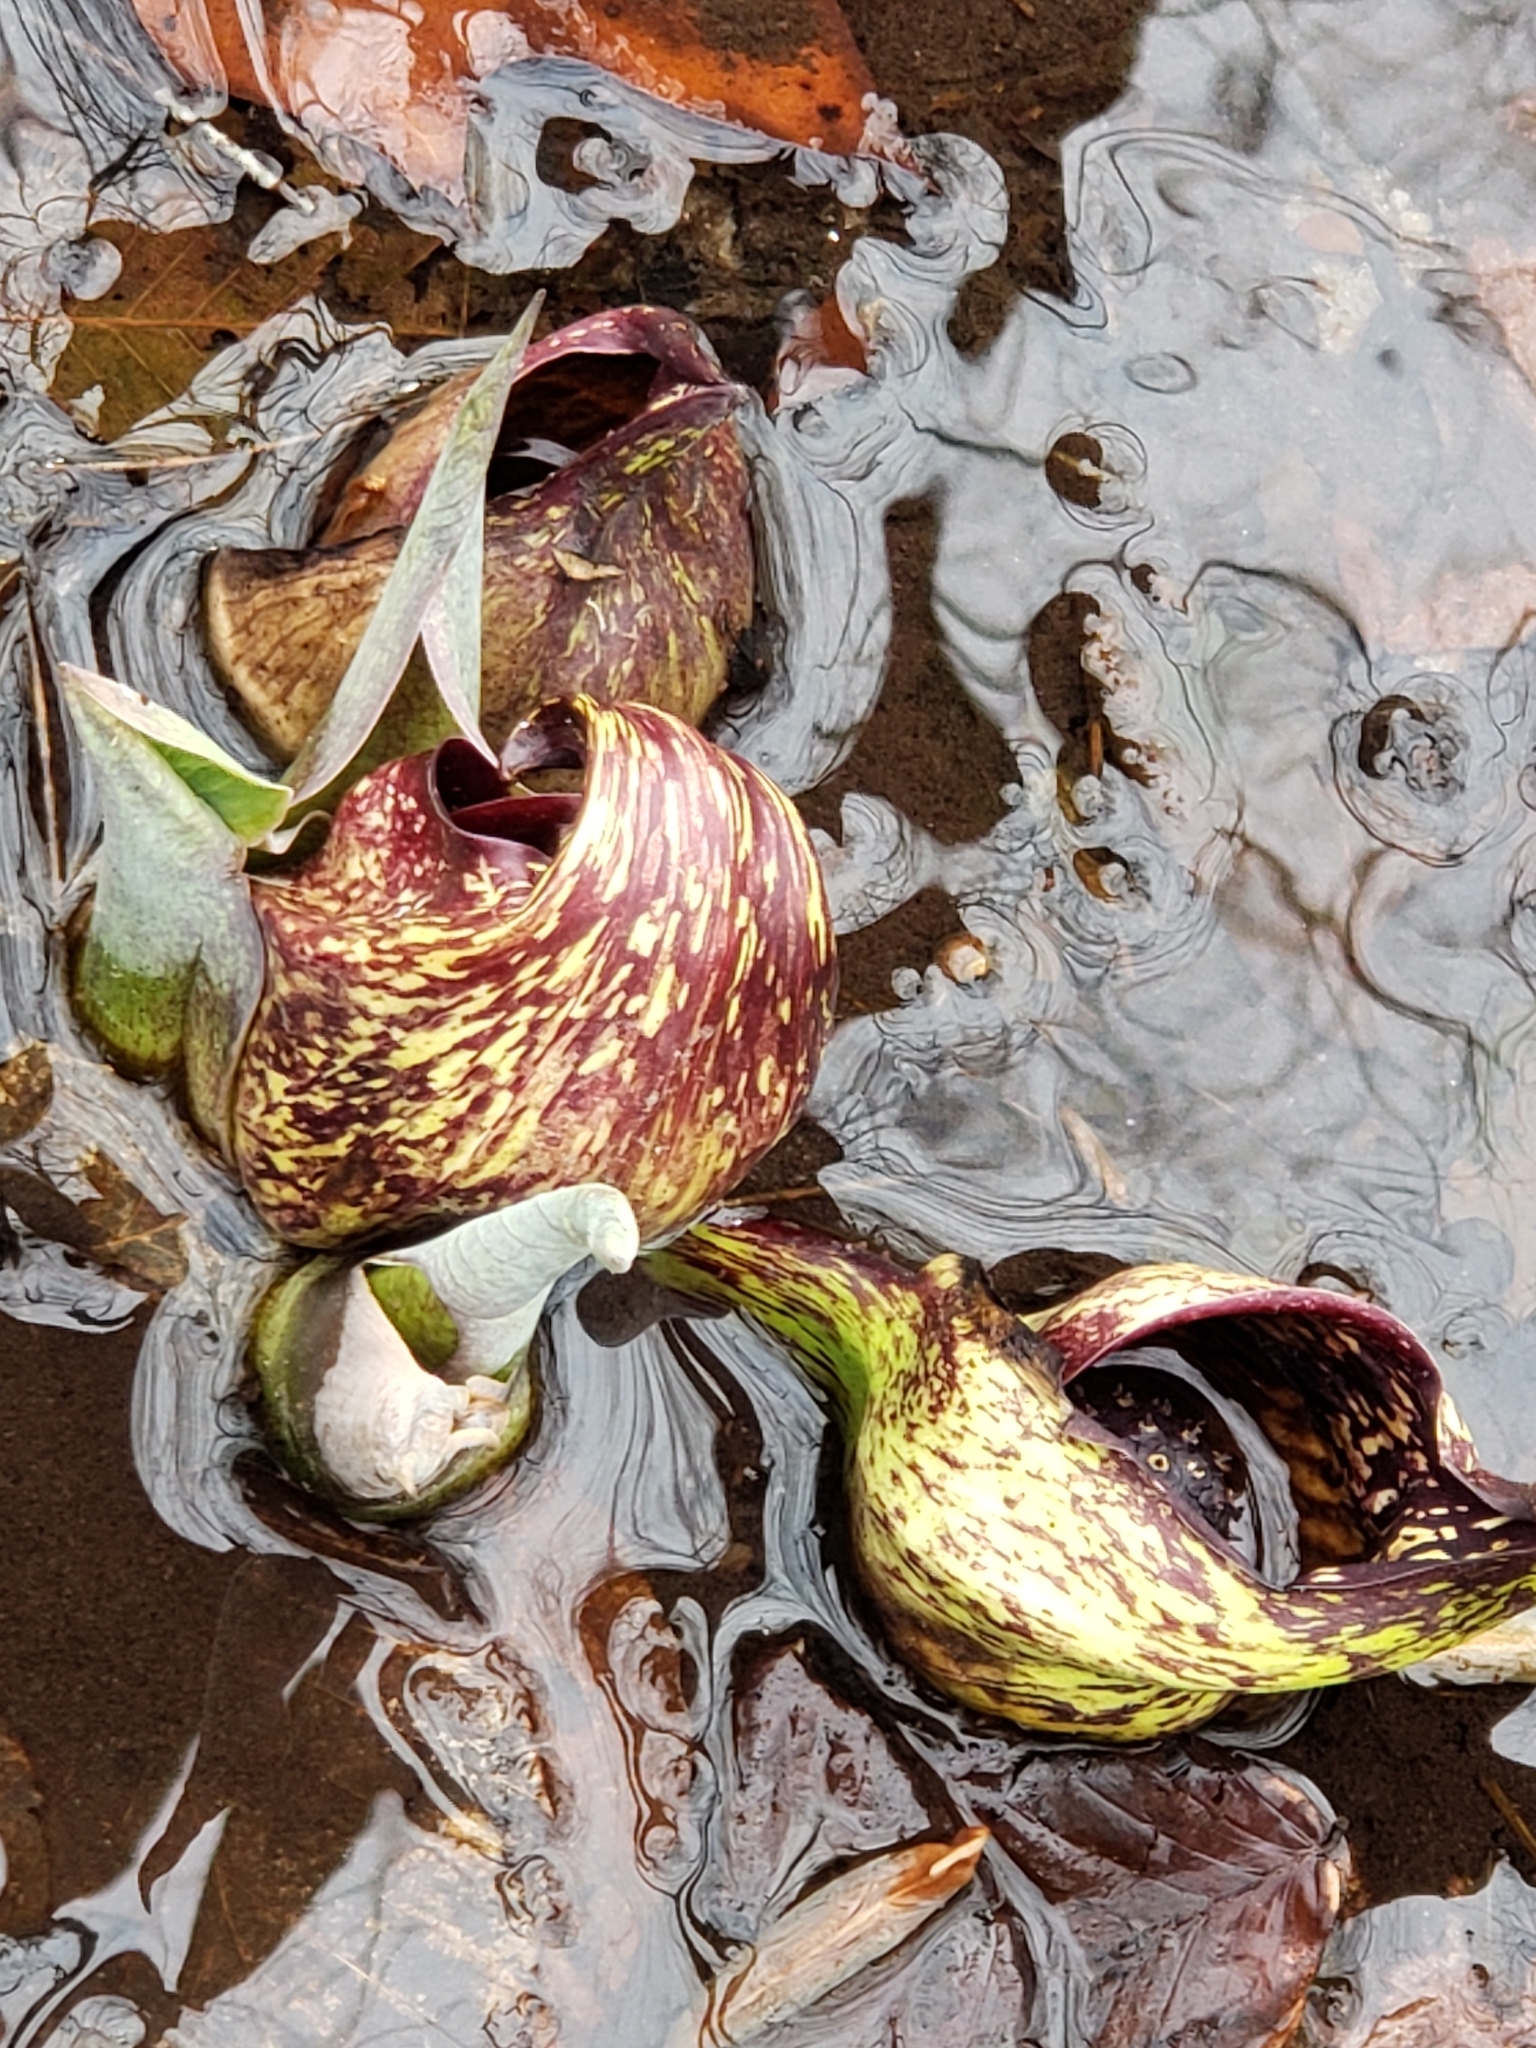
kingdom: Plantae
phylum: Tracheophyta
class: Liliopsida
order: Alismatales
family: Araceae
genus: Symplocarpus
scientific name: Symplocarpus foetidus
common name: Eastern skunk cabbage
